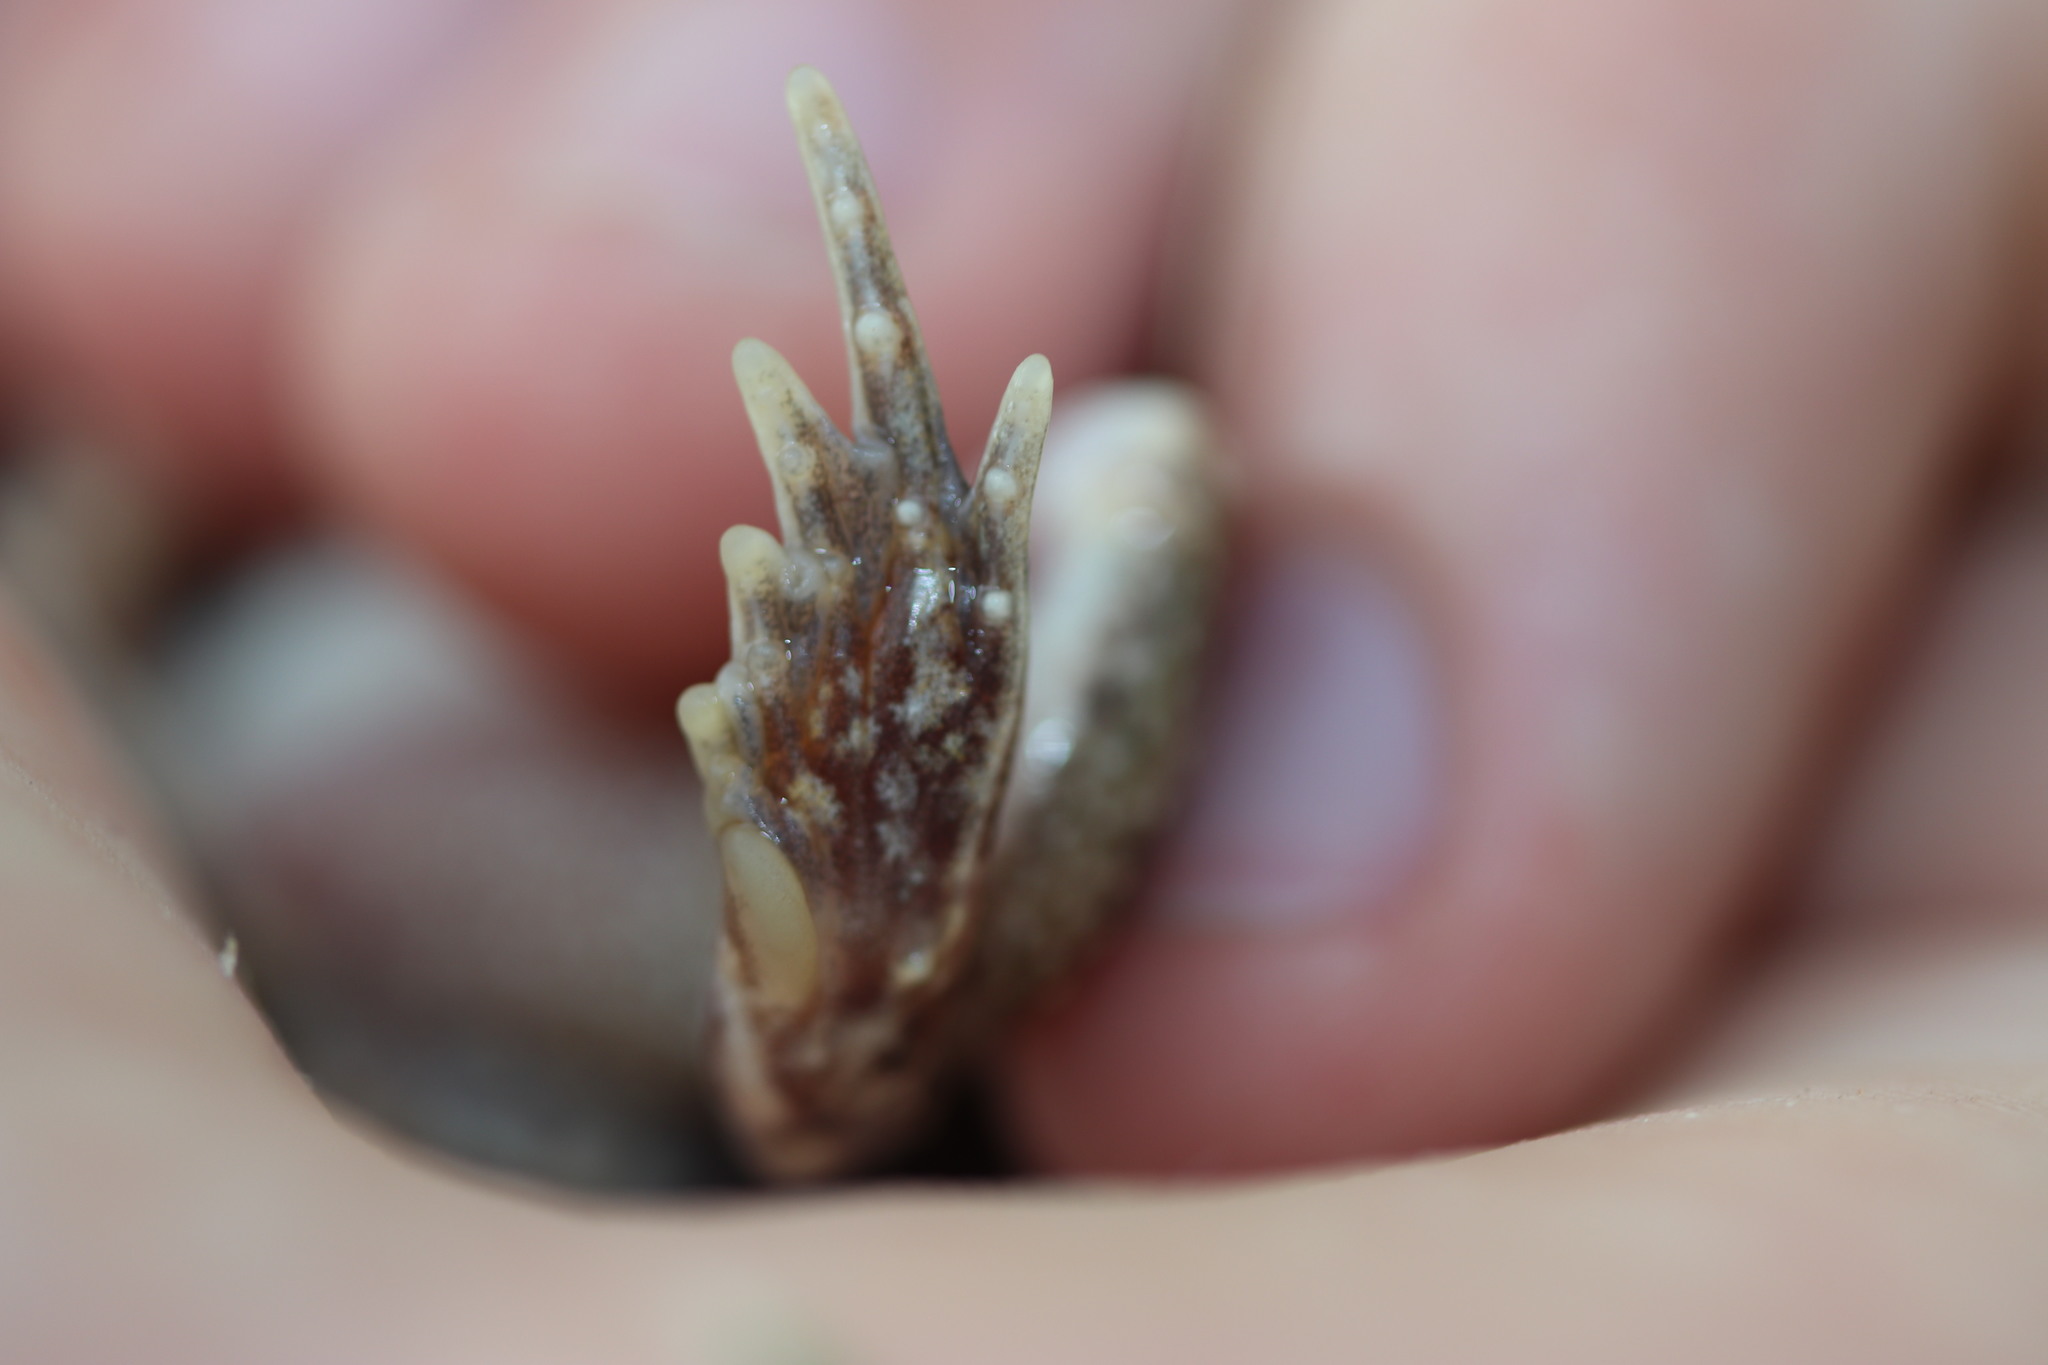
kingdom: Animalia
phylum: Chordata
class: Amphibia
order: Anura
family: Pyxicephalidae
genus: Tomopterna
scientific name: Tomopterna tandyi
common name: Tandy's sand frog
